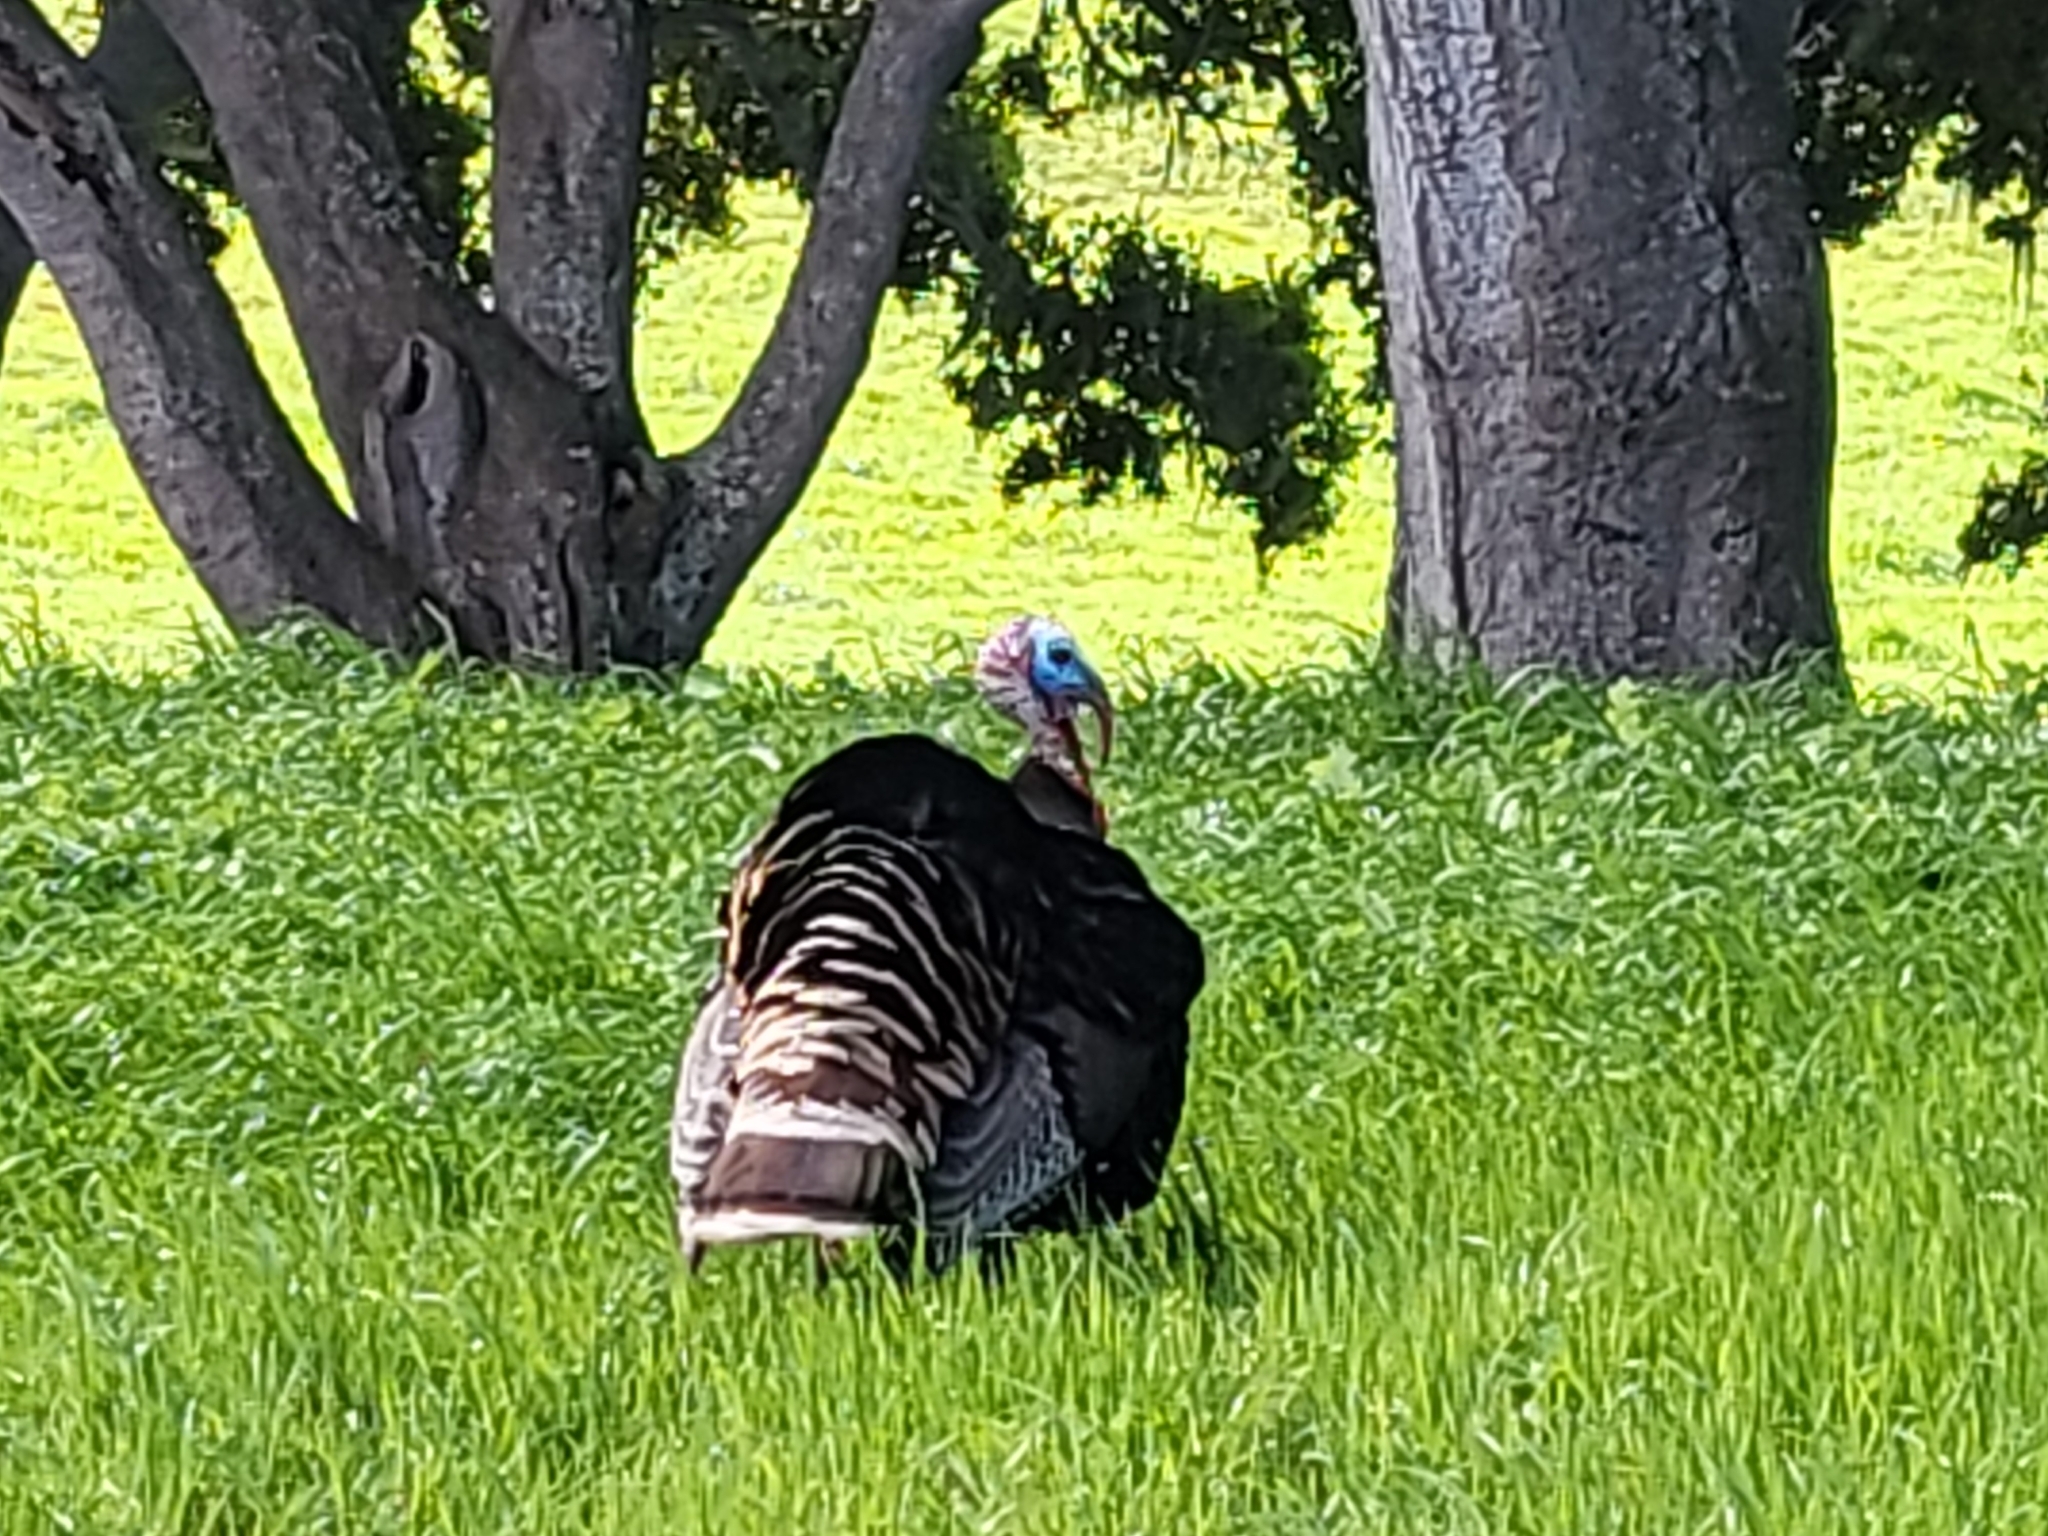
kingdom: Animalia
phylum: Chordata
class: Aves
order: Galliformes
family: Phasianidae
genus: Meleagris
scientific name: Meleagris gallopavo
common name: Wild turkey
